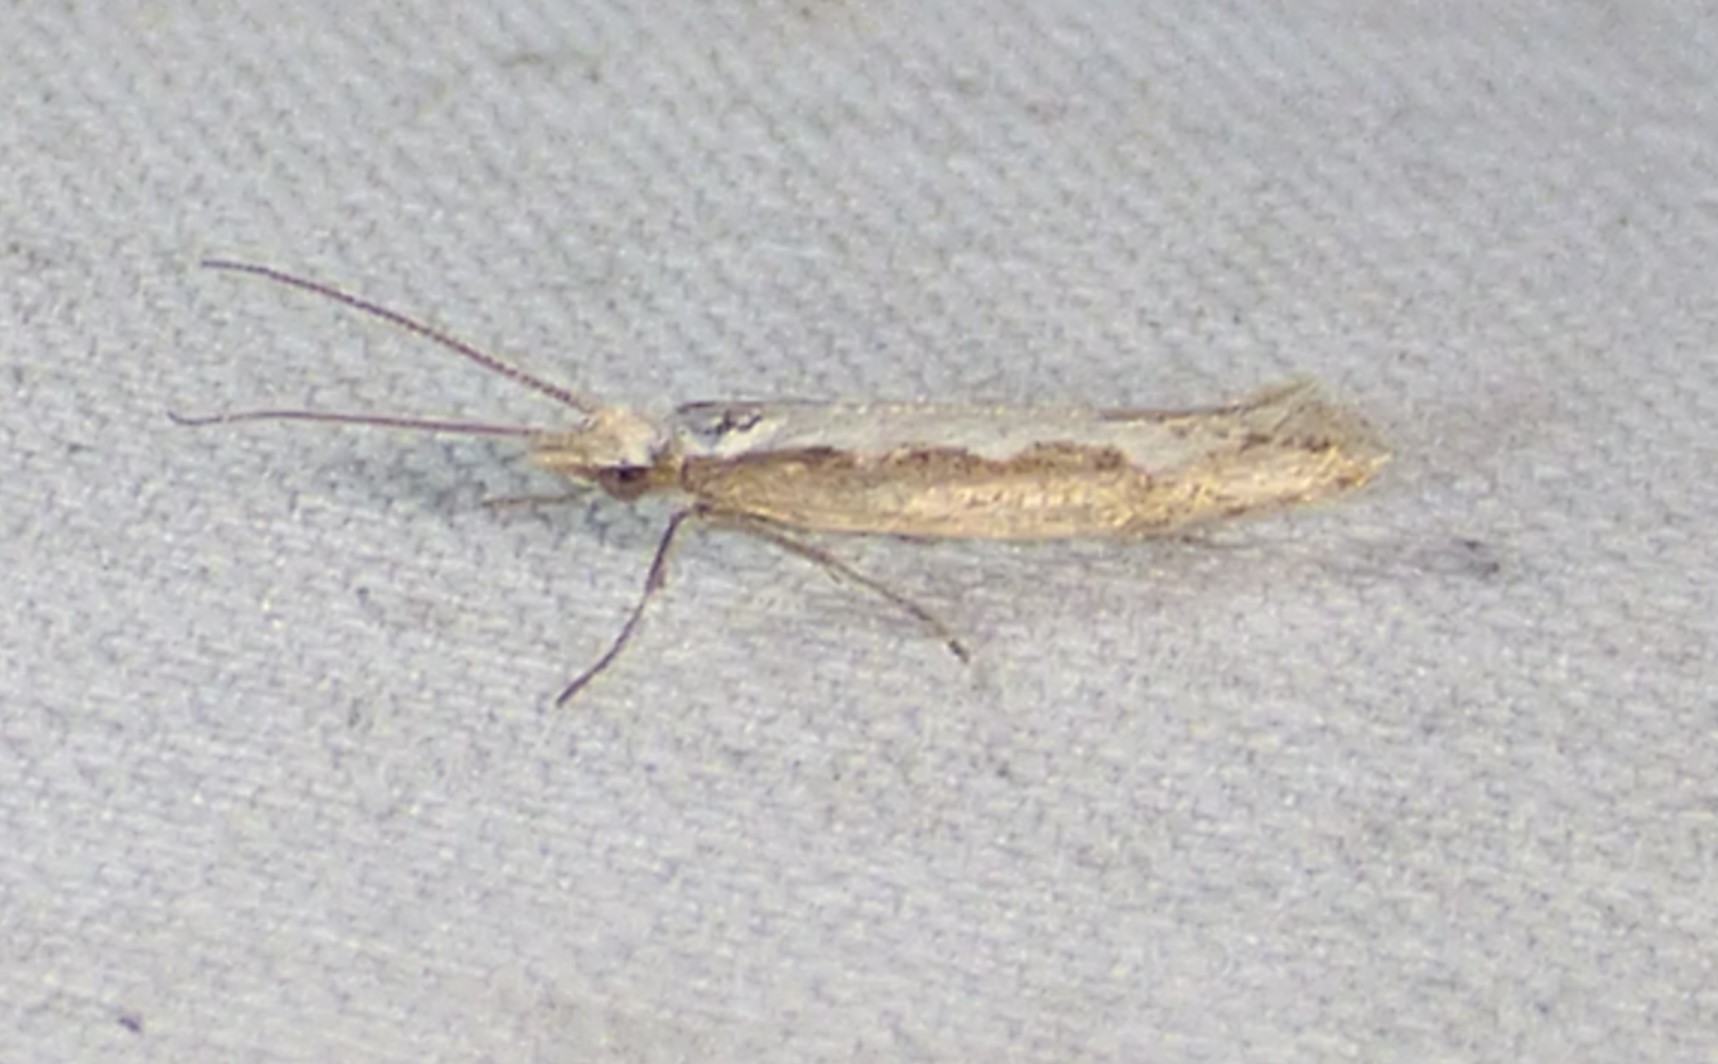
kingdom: Animalia
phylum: Arthropoda
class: Insecta
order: Lepidoptera
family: Plutellidae
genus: Plutella
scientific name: Plutella xylostella
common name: Diamond-back moth
